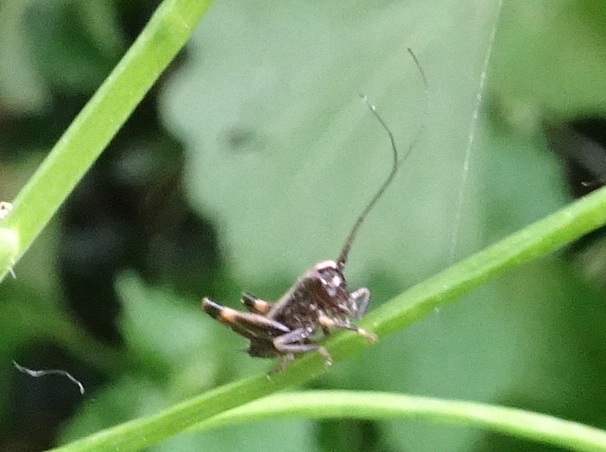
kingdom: Animalia
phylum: Arthropoda
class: Insecta
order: Orthoptera
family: Tettigoniidae
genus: Pholidoptera
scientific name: Pholidoptera griseoaptera
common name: Dark bush-cricket
